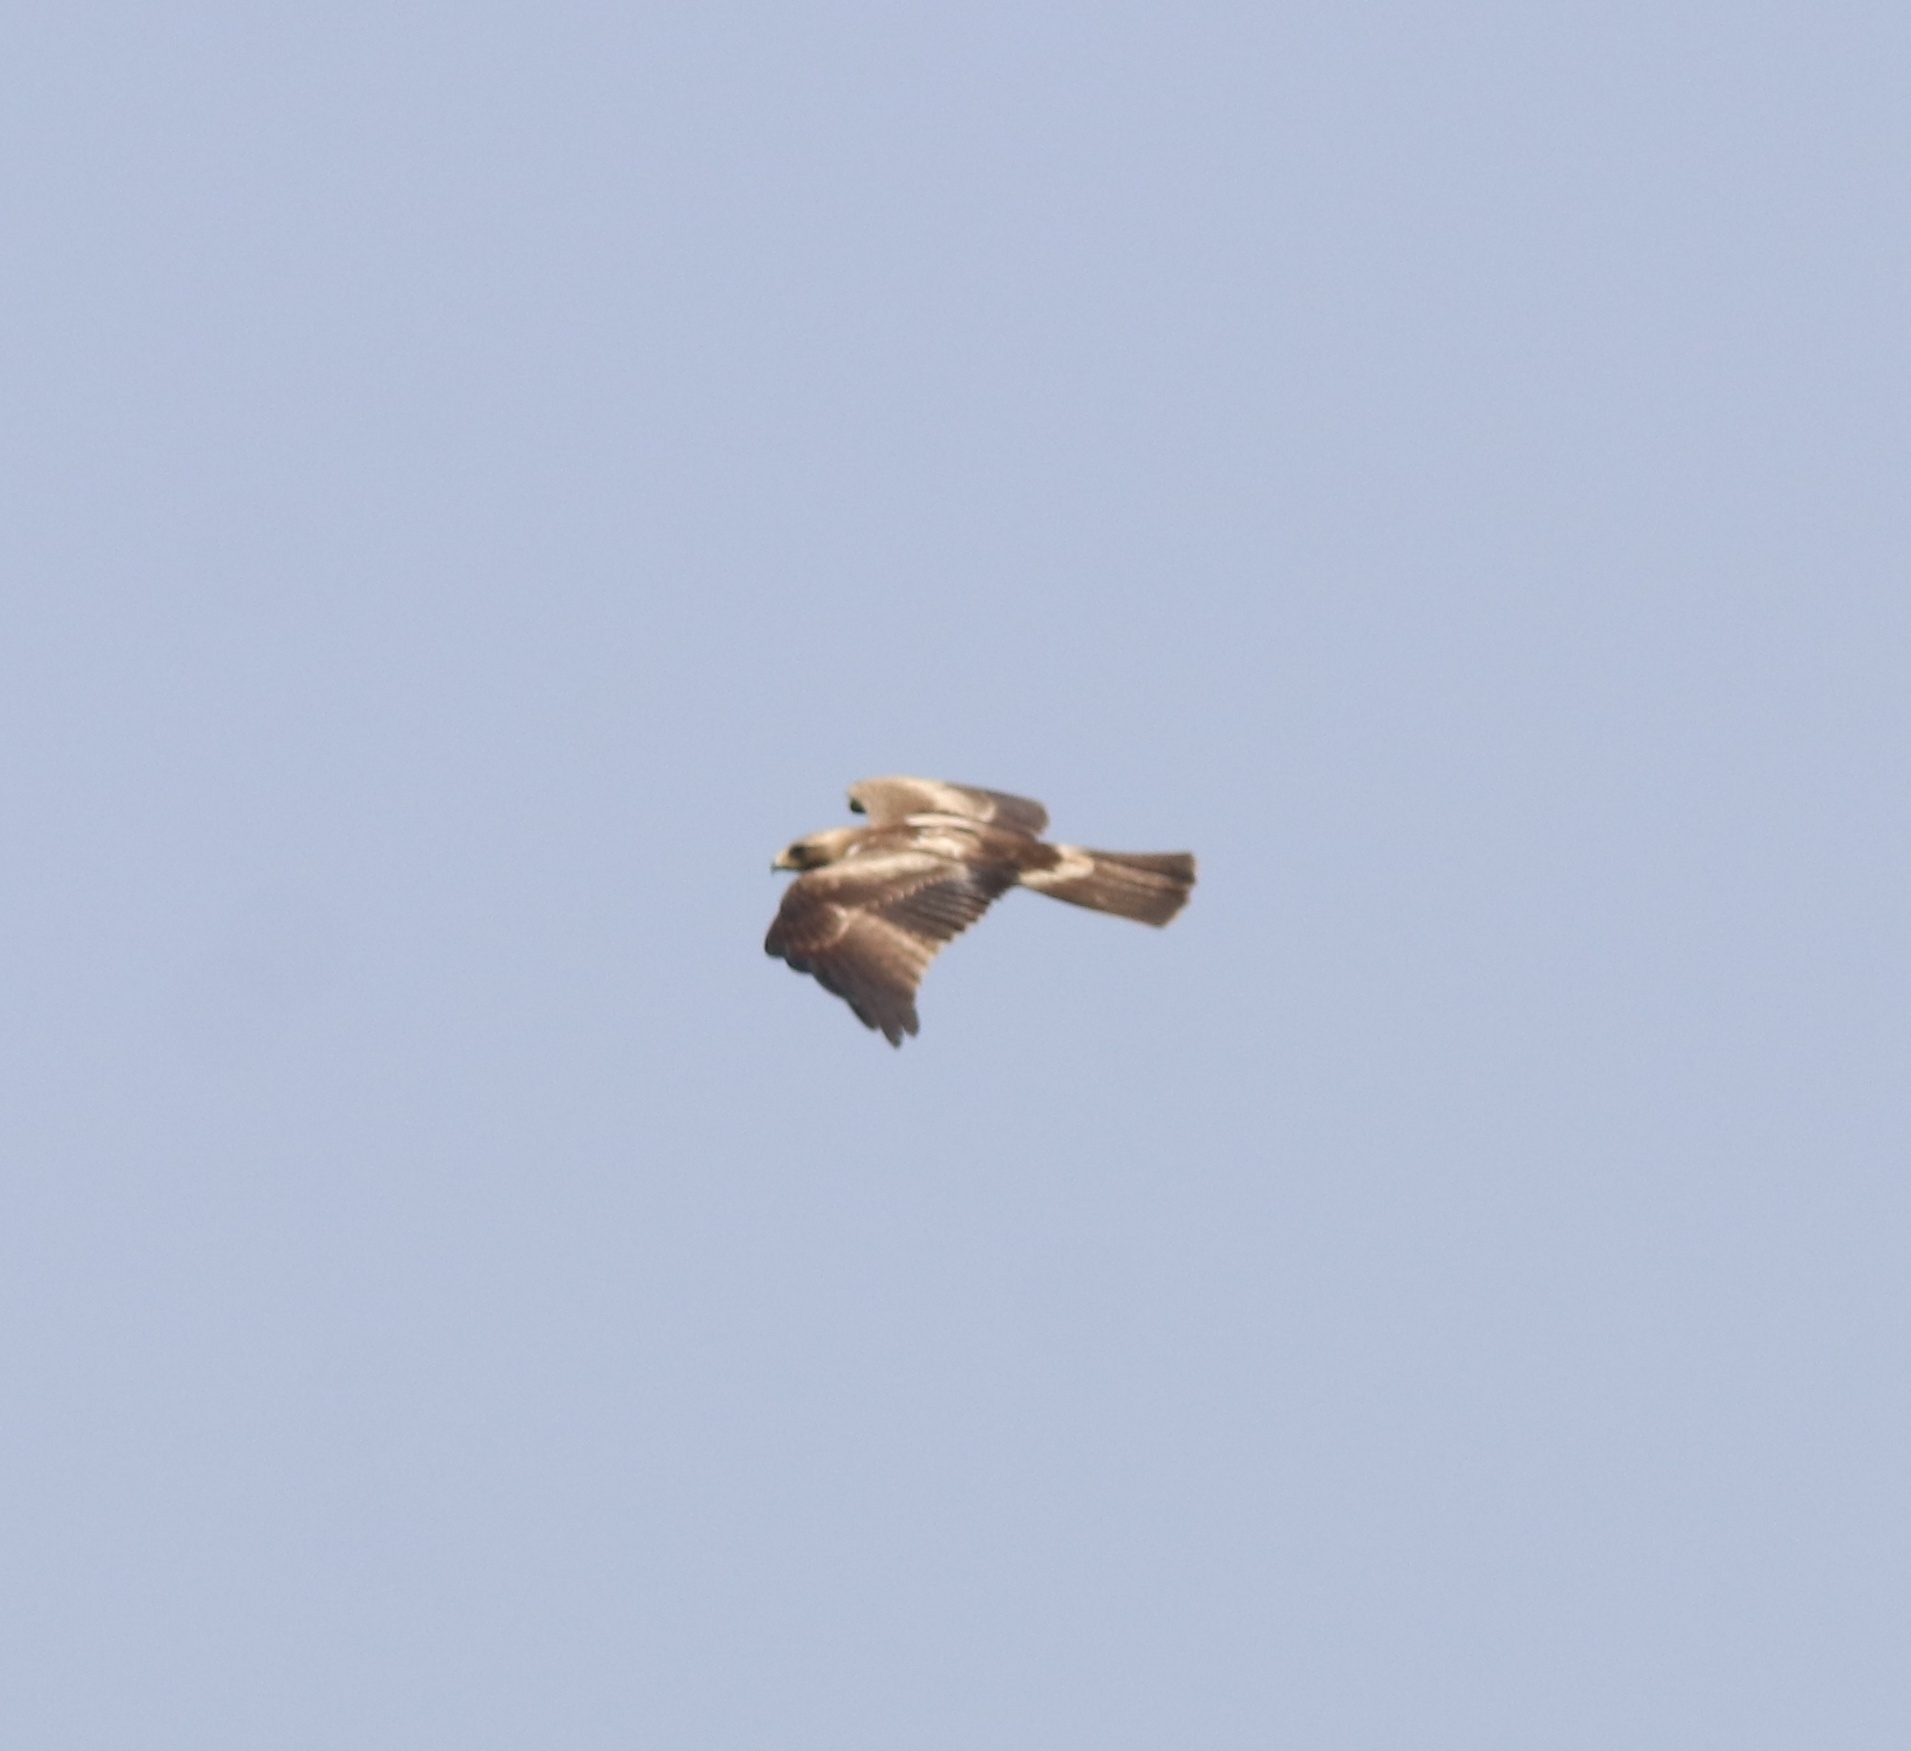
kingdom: Animalia
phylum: Chordata
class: Aves
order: Accipitriformes
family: Accipitridae
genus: Hieraaetus
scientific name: Hieraaetus pennatus
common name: Booted eagle
